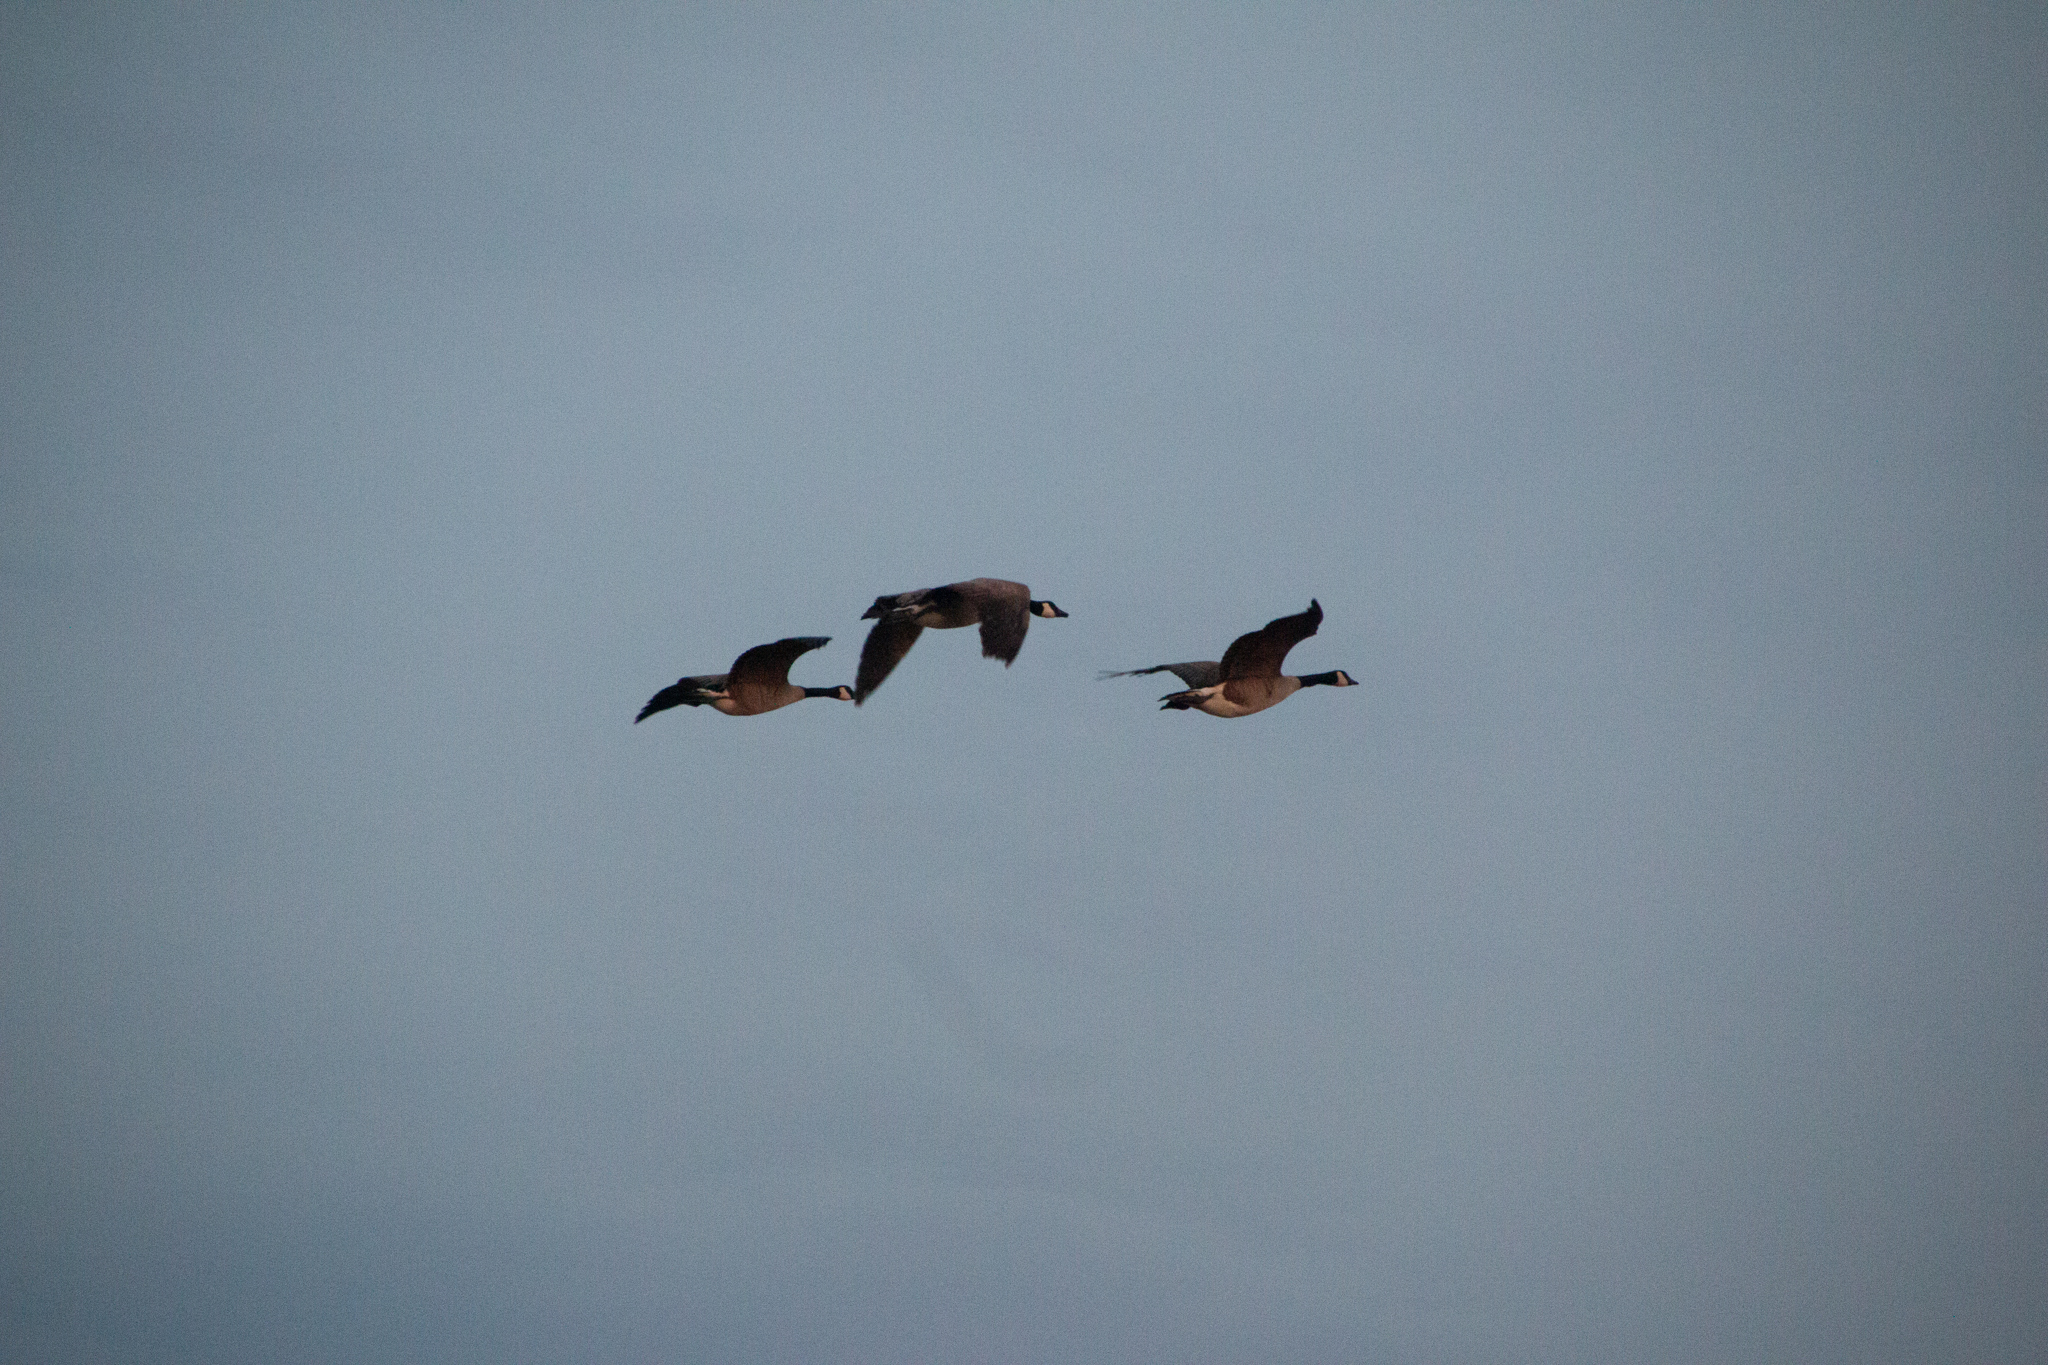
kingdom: Animalia
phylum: Chordata
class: Aves
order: Anseriformes
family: Anatidae
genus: Branta
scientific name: Branta canadensis
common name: Canada goose
